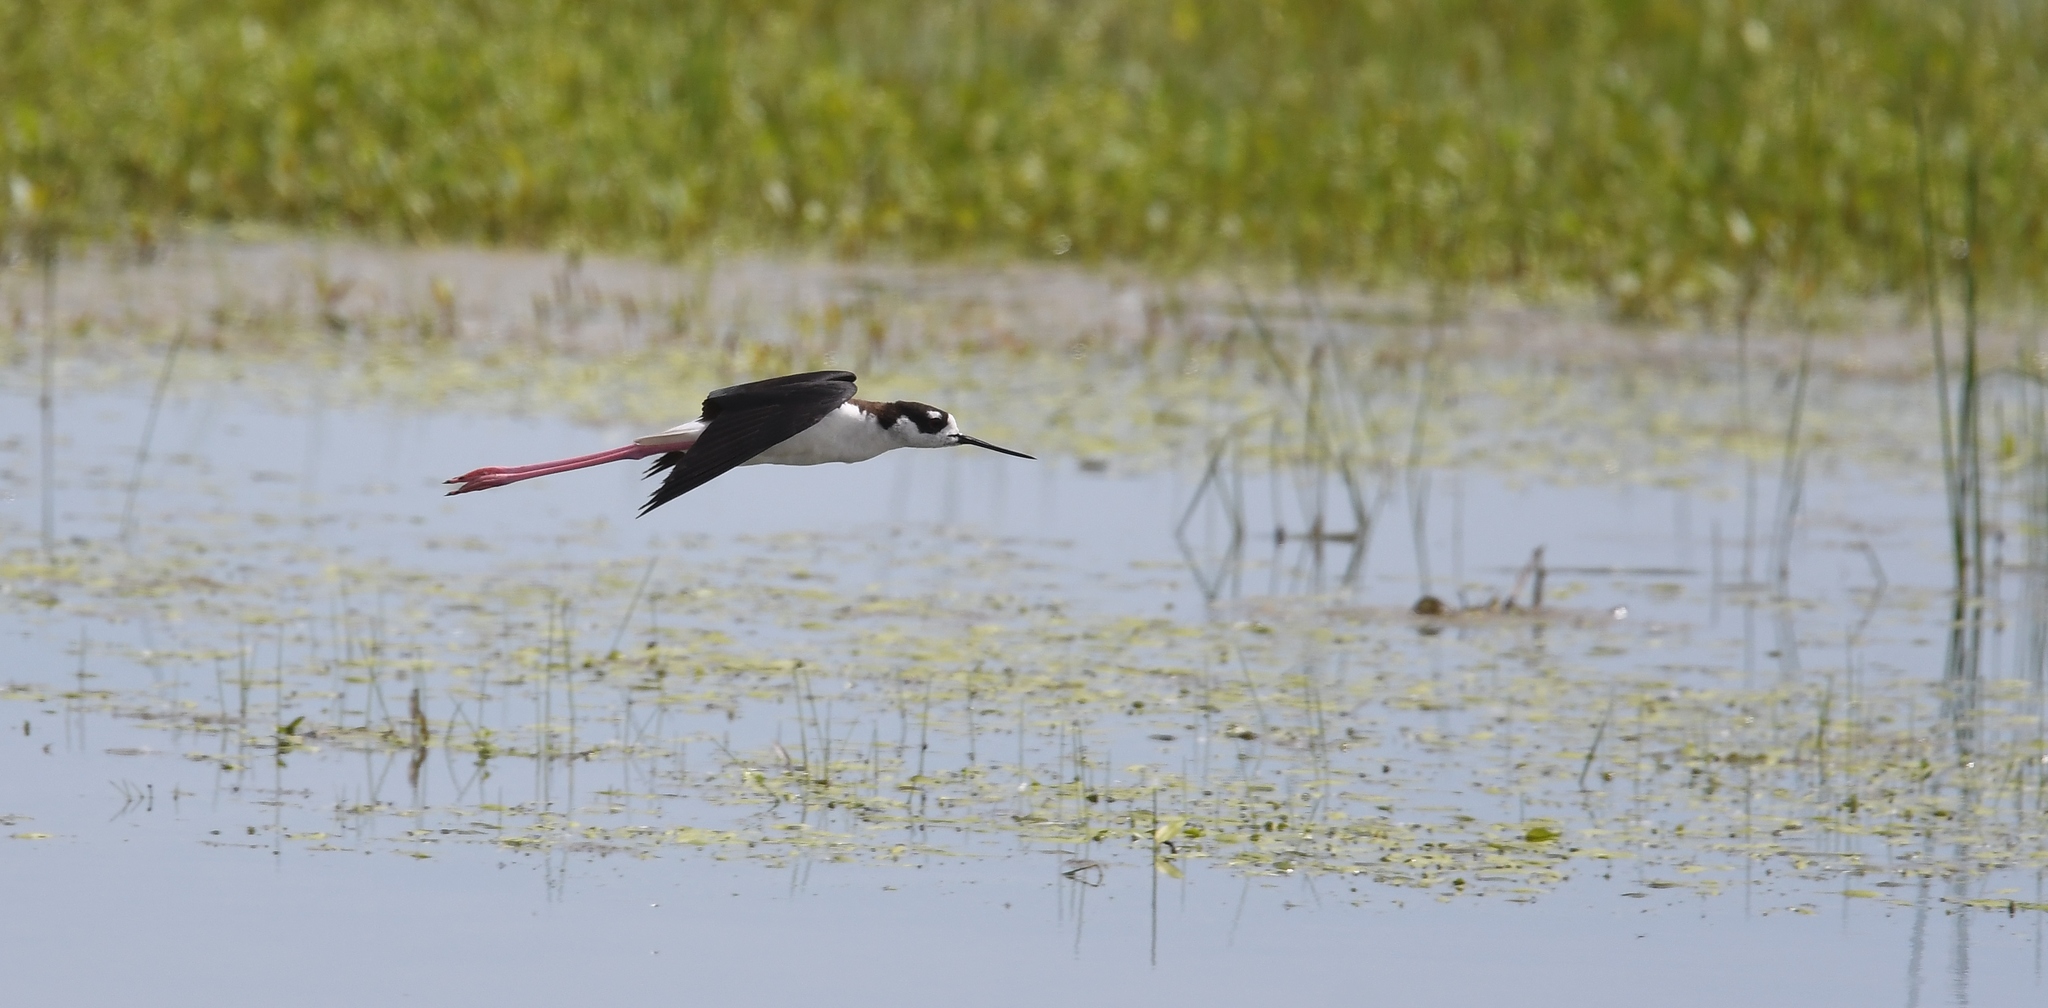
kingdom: Animalia
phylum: Chordata
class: Aves
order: Charadriiformes
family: Recurvirostridae
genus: Himantopus
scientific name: Himantopus mexicanus
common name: Black-necked stilt
